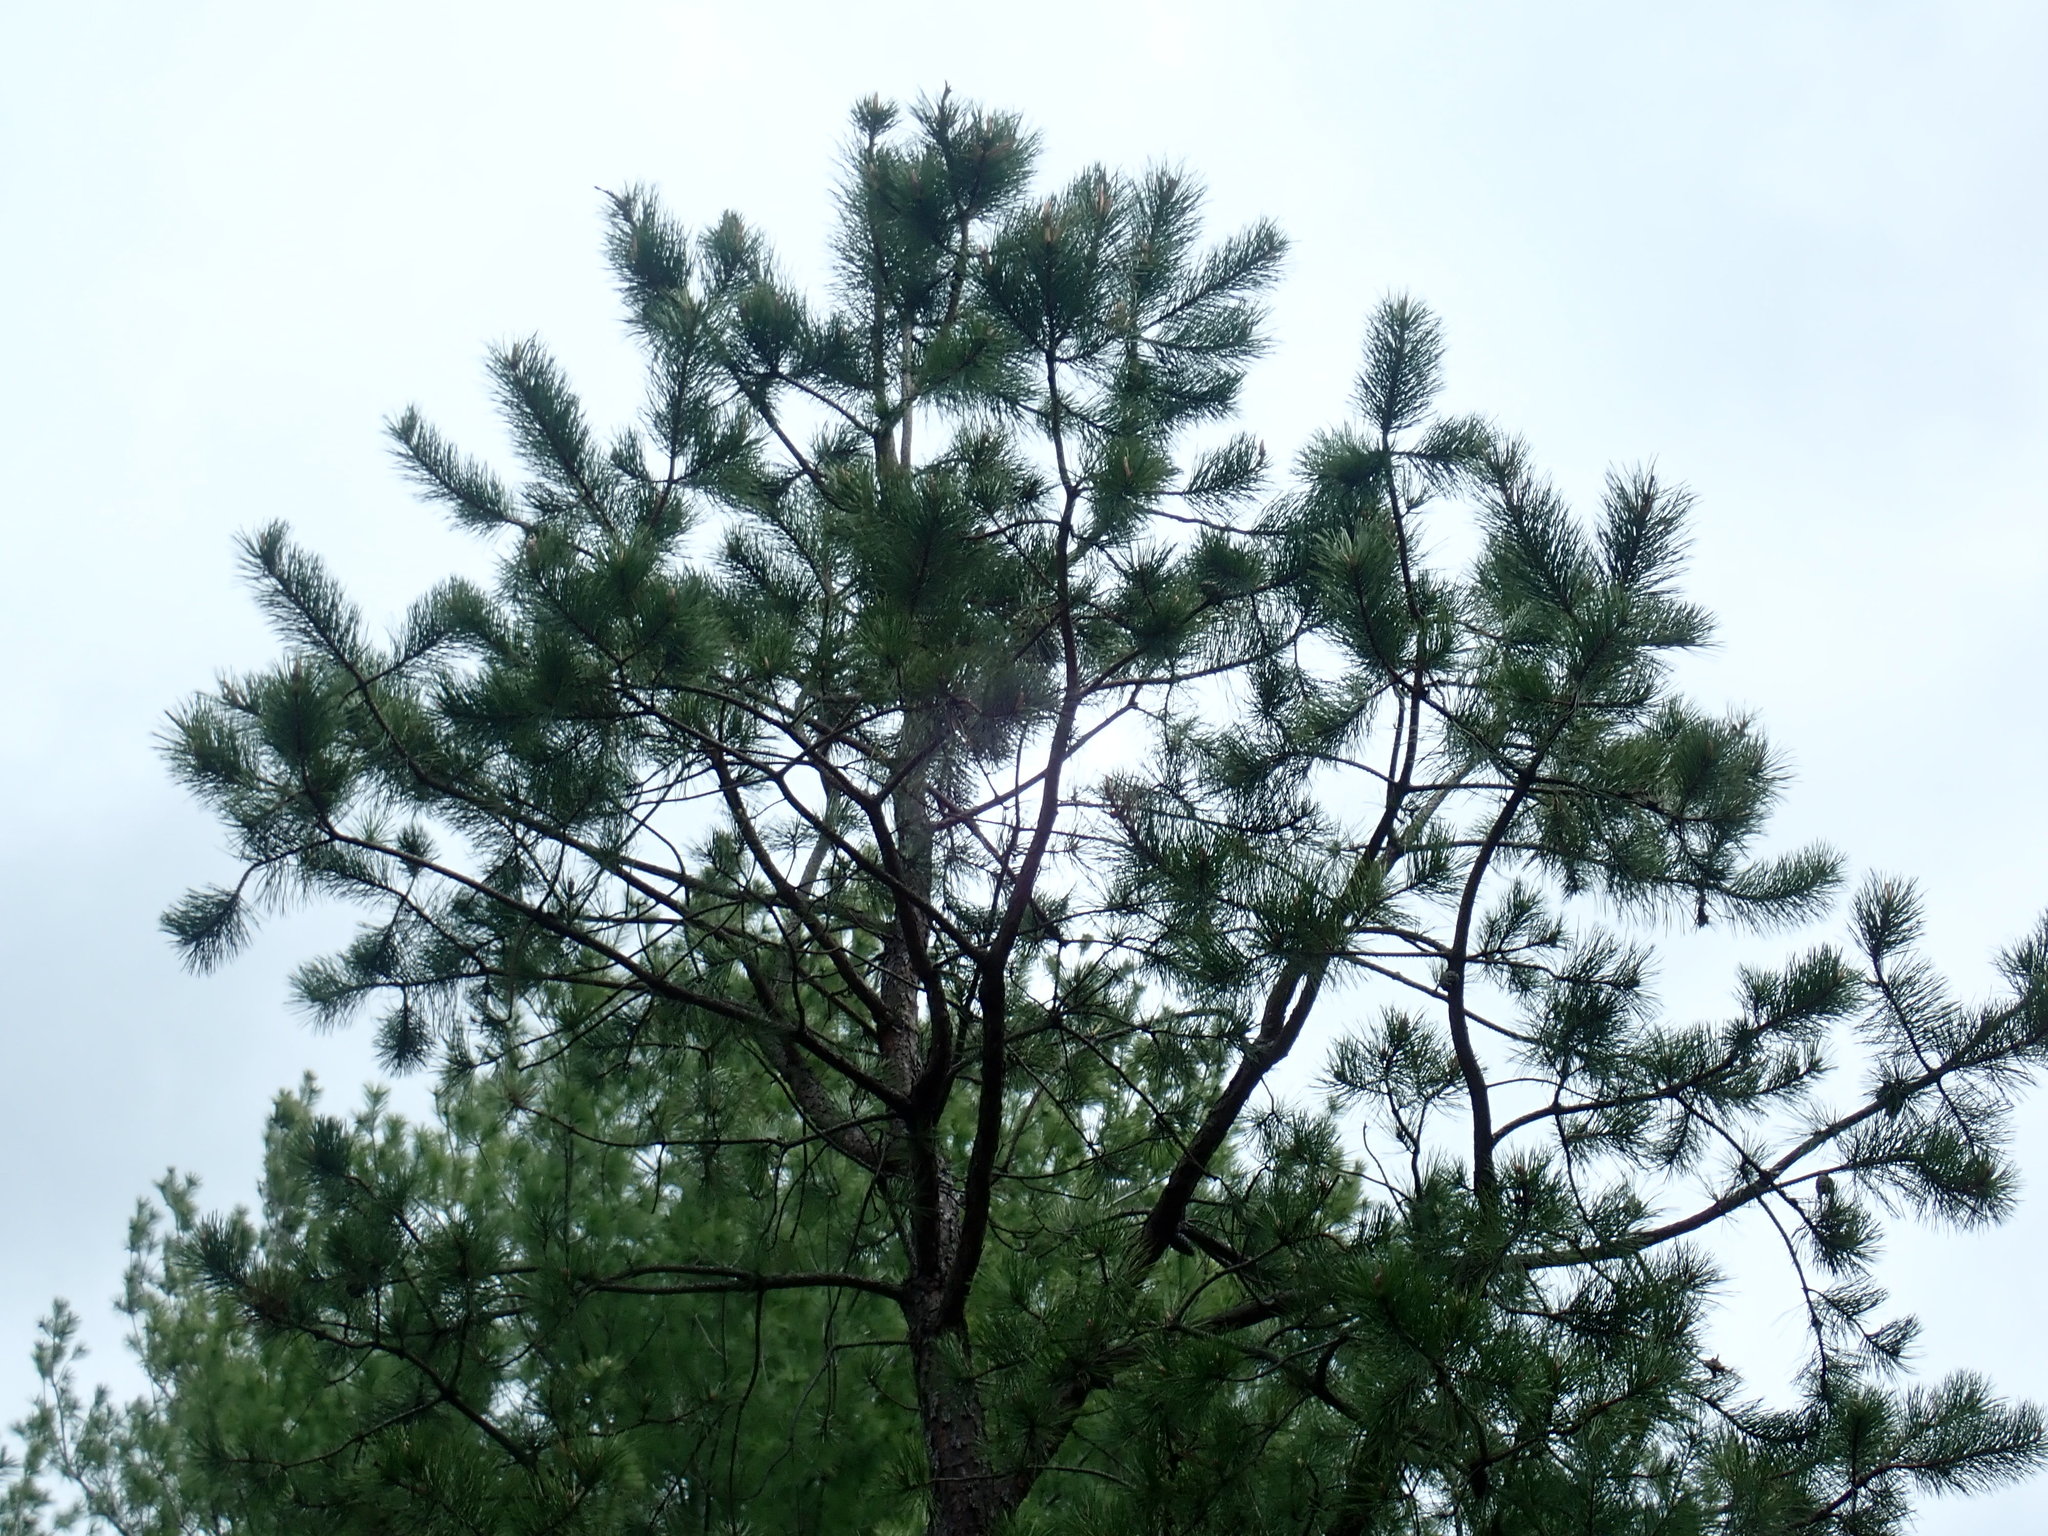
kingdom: Plantae
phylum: Tracheophyta
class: Pinopsida
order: Pinales
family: Pinaceae
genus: Pinus
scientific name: Pinus rigida
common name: Pitch pine
